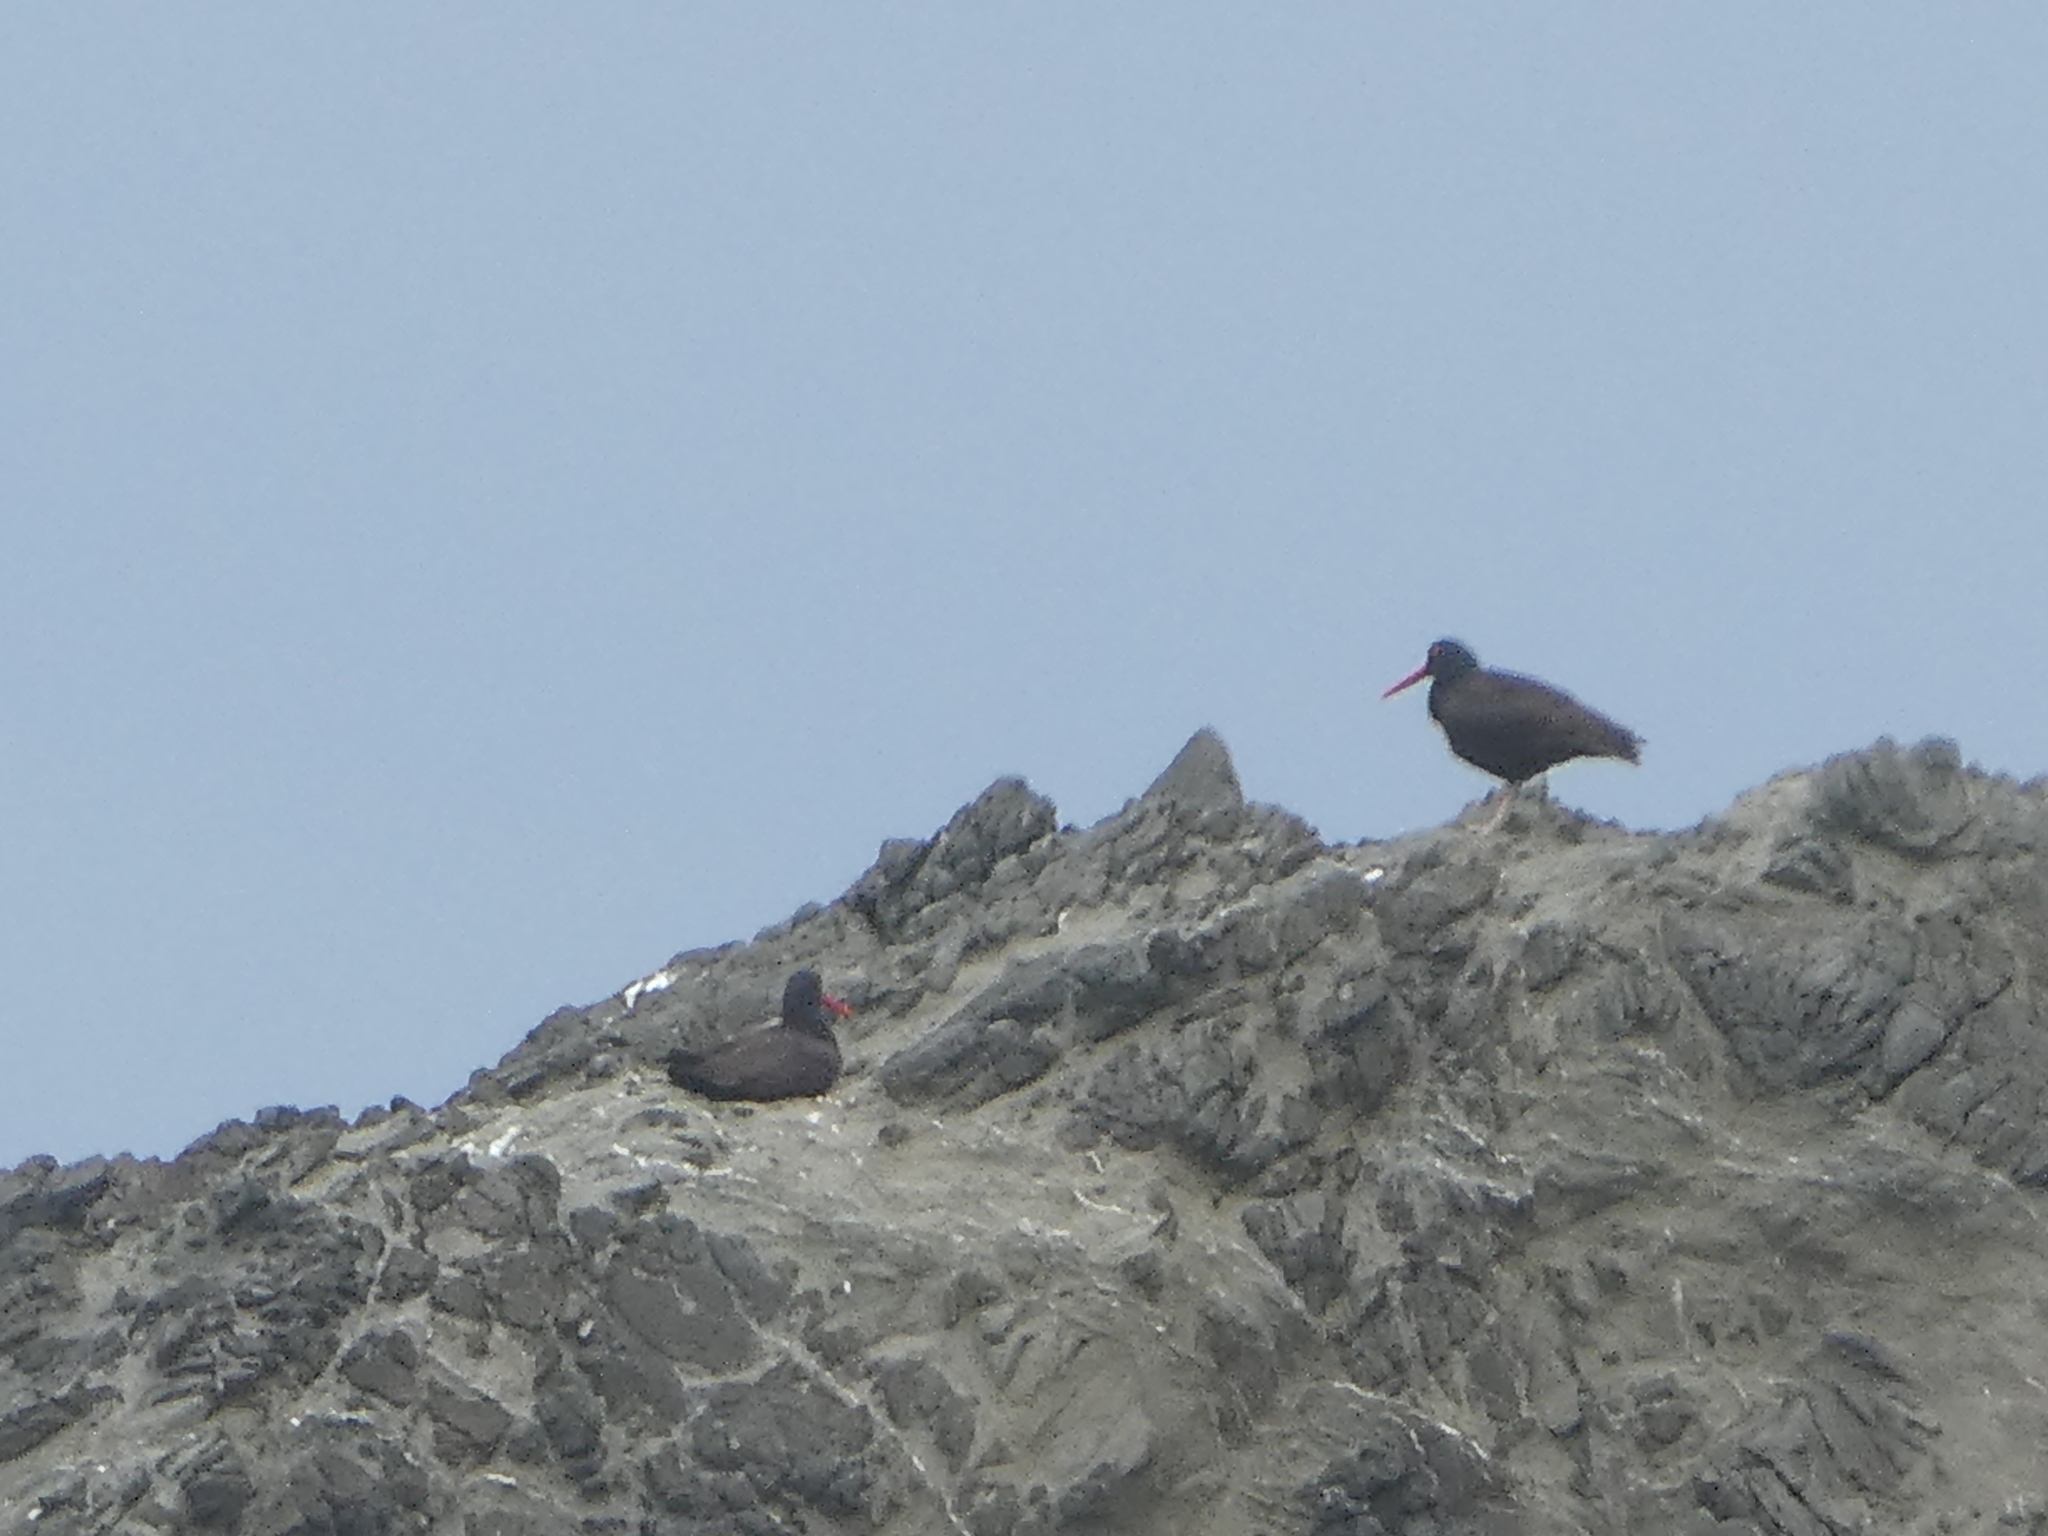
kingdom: Animalia
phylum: Chordata
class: Aves
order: Charadriiformes
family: Haematopodidae
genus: Haematopus
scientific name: Haematopus bachmani
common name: Black oystercatcher
